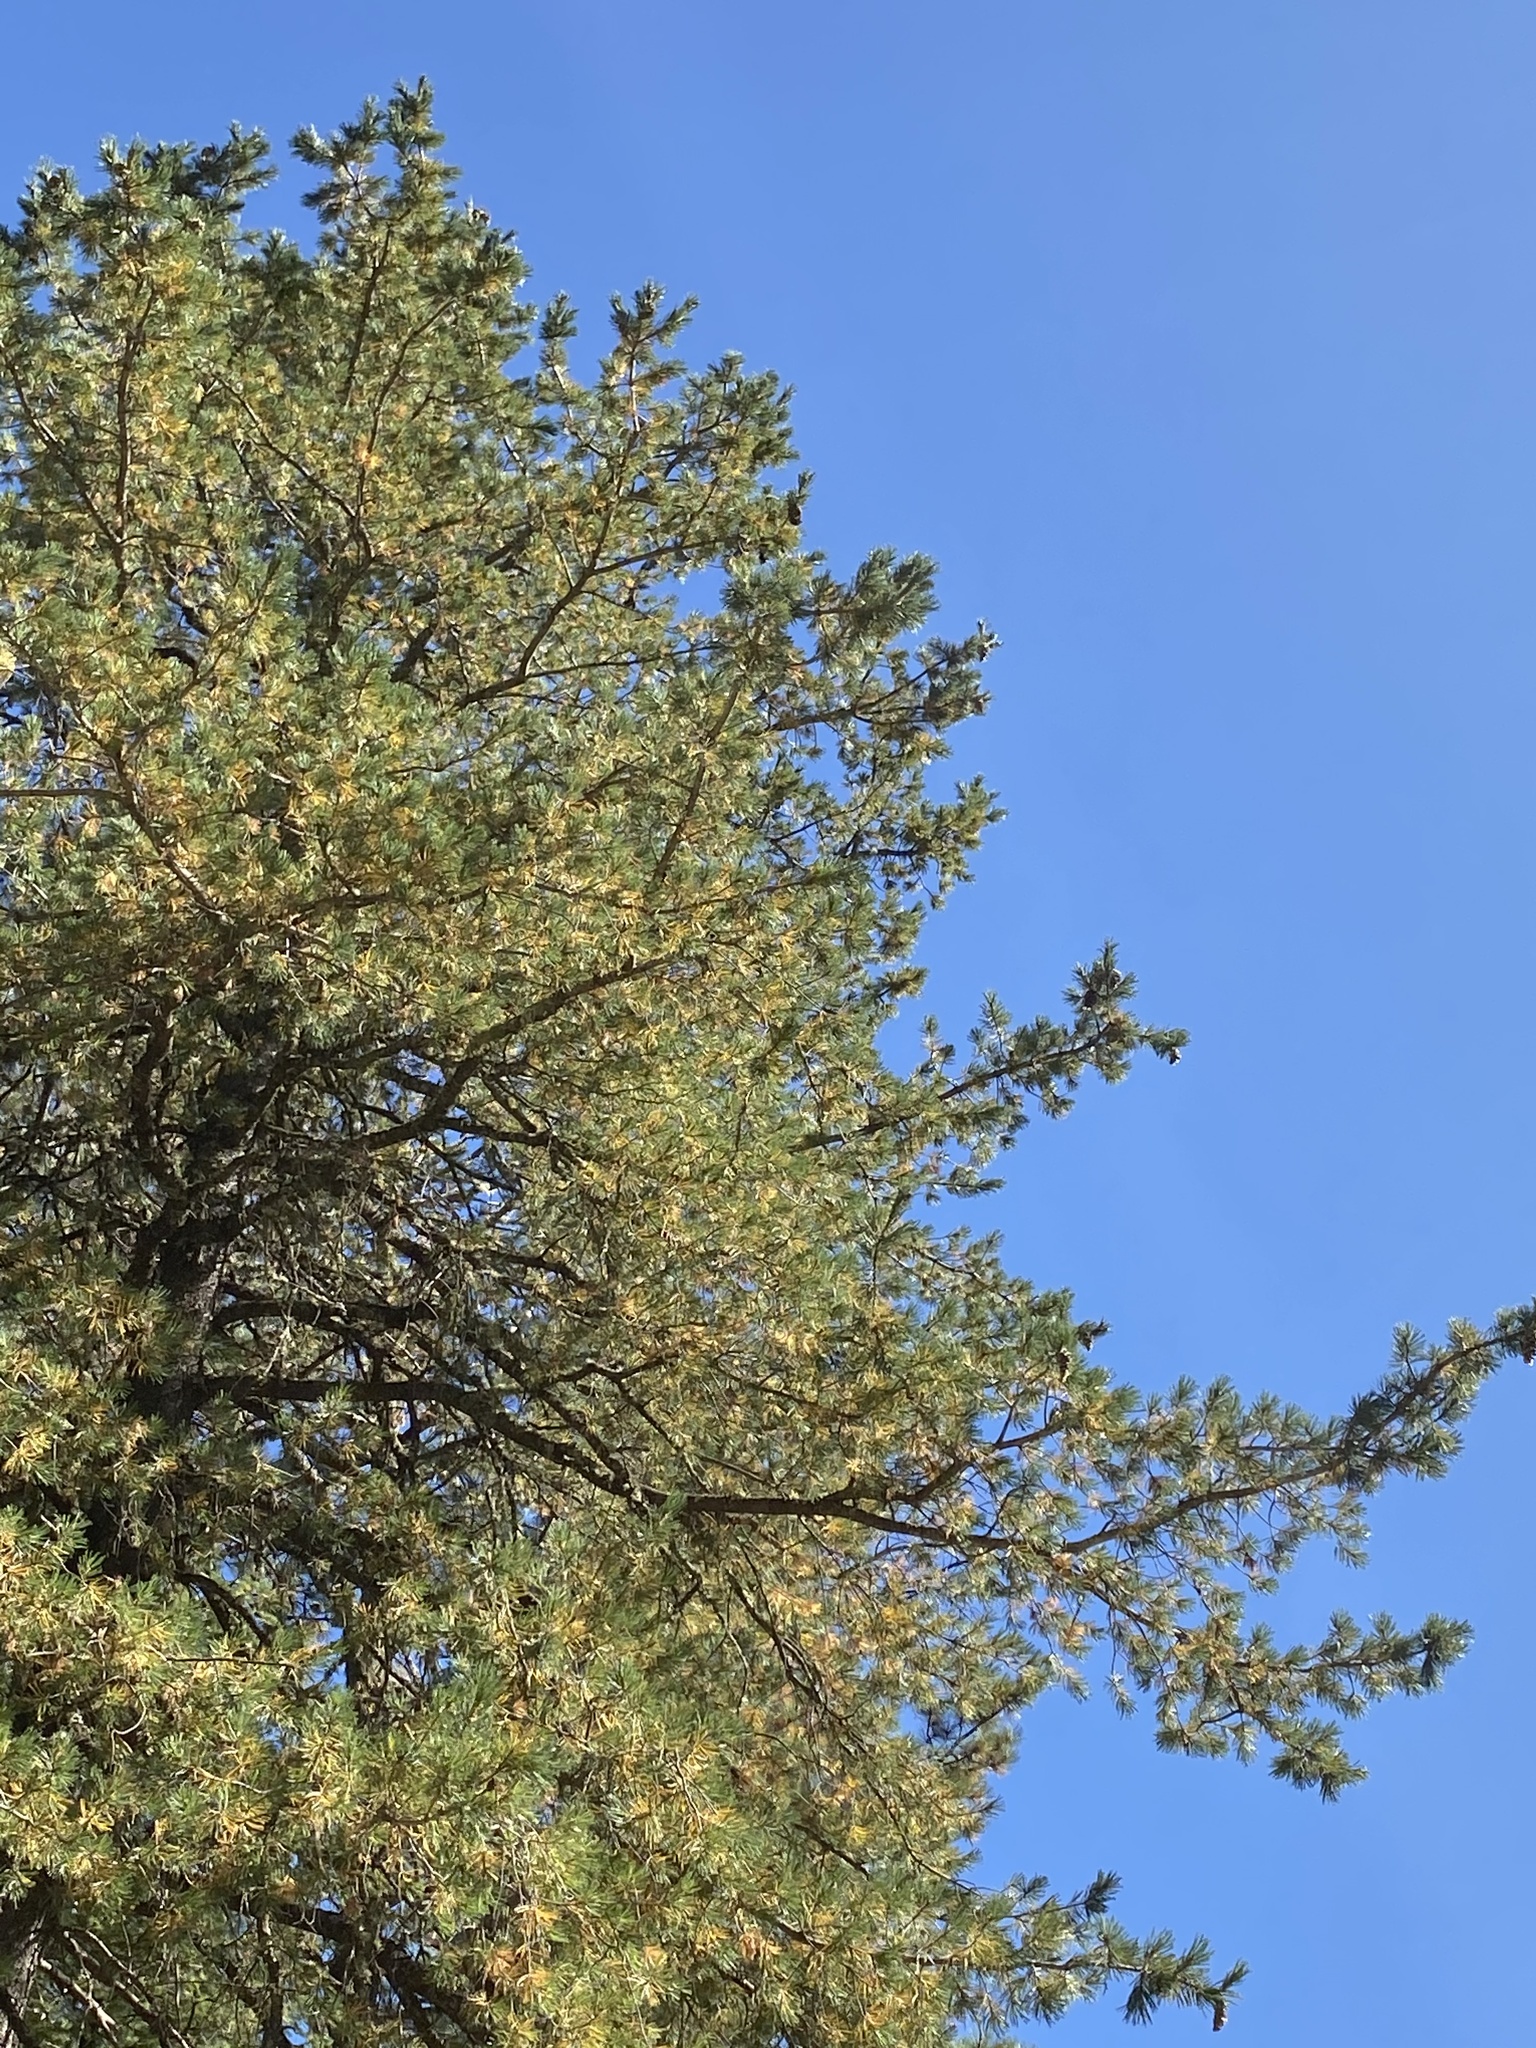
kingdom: Plantae
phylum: Tracheophyta
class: Pinopsida
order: Pinales
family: Pinaceae
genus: Pinus
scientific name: Pinus strobiformis
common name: Southwestern white pine
